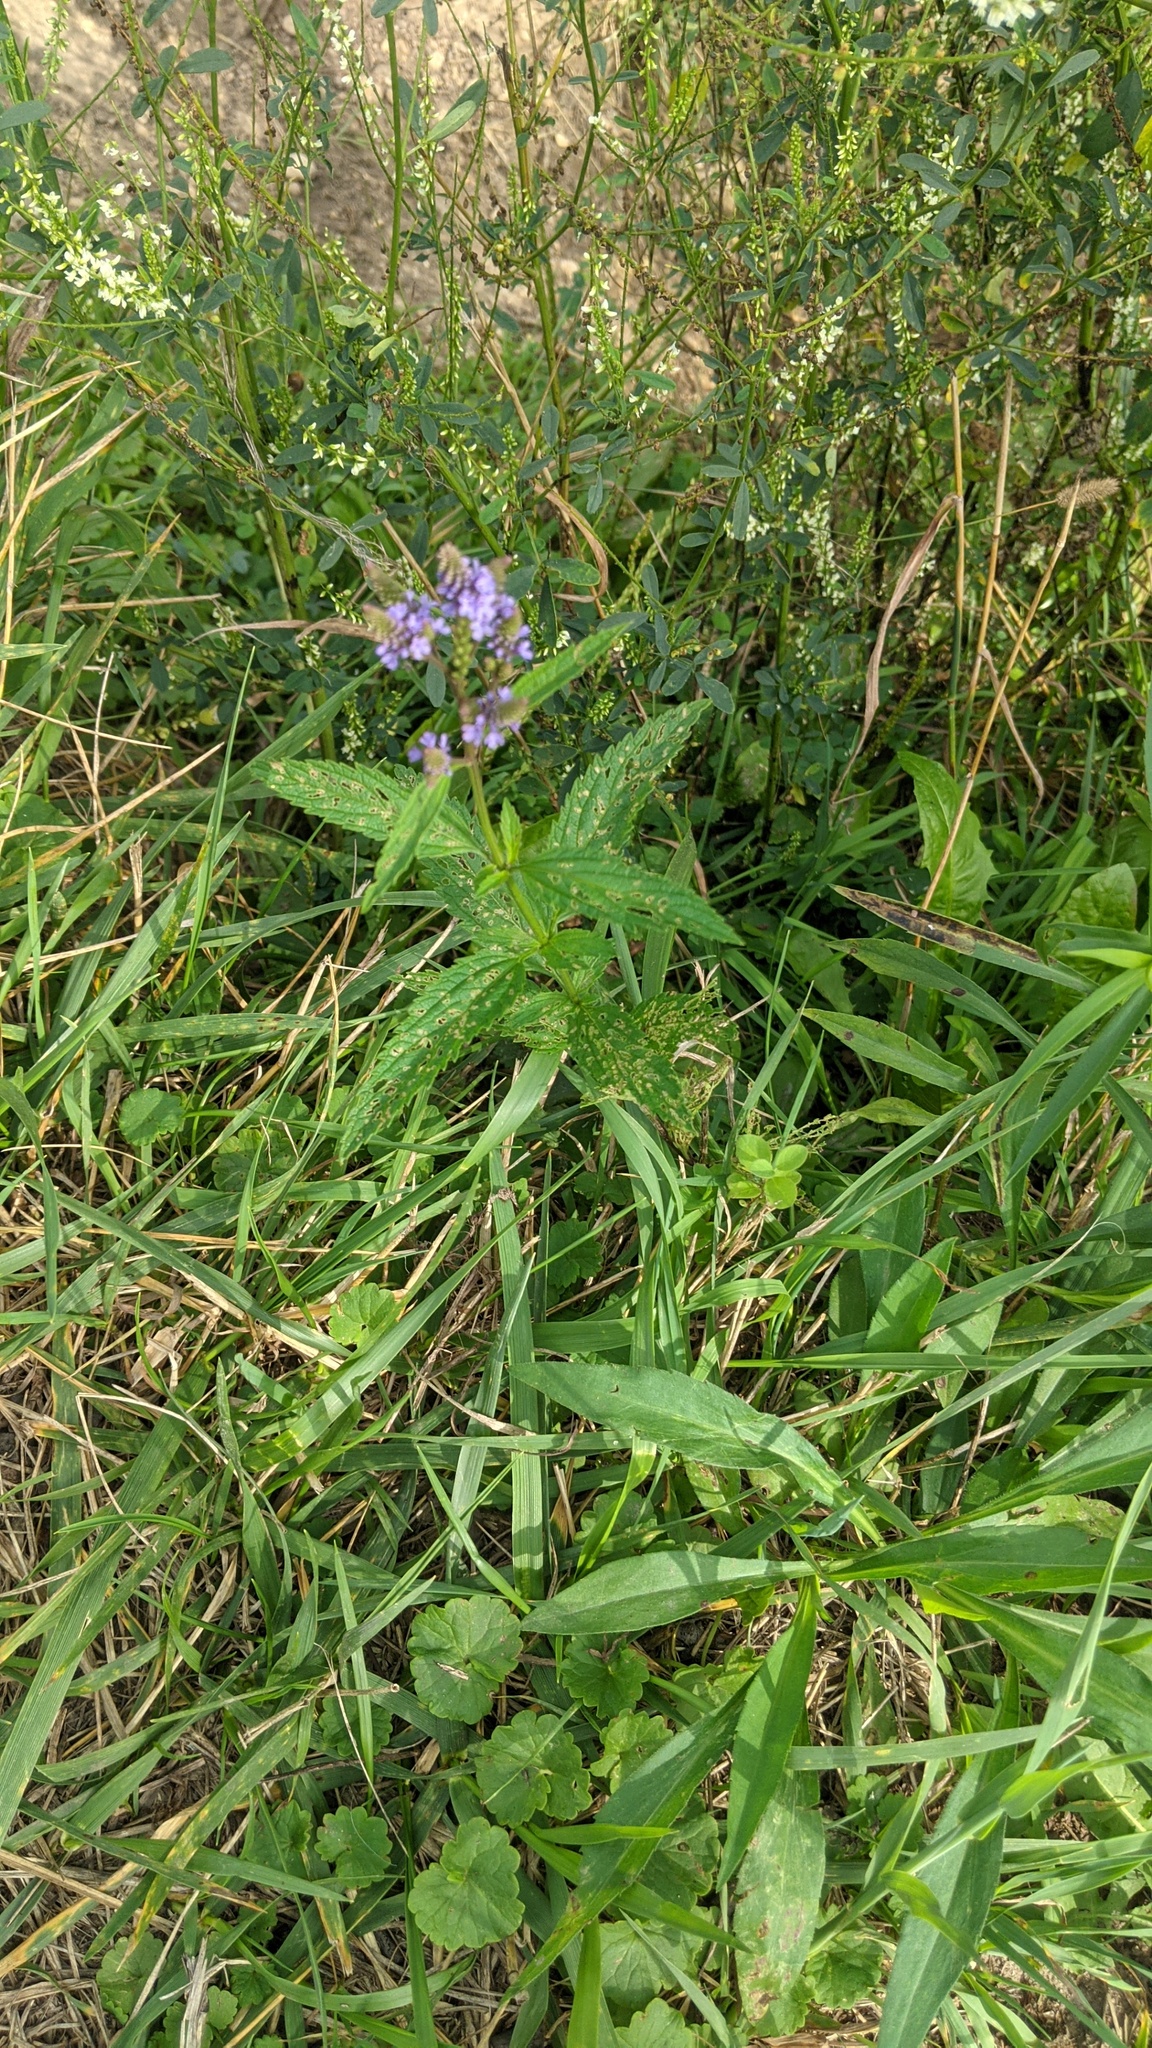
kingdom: Plantae
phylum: Tracheophyta
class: Magnoliopsida
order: Lamiales
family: Verbenaceae
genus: Verbena
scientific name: Verbena hastata
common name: American blue vervain
